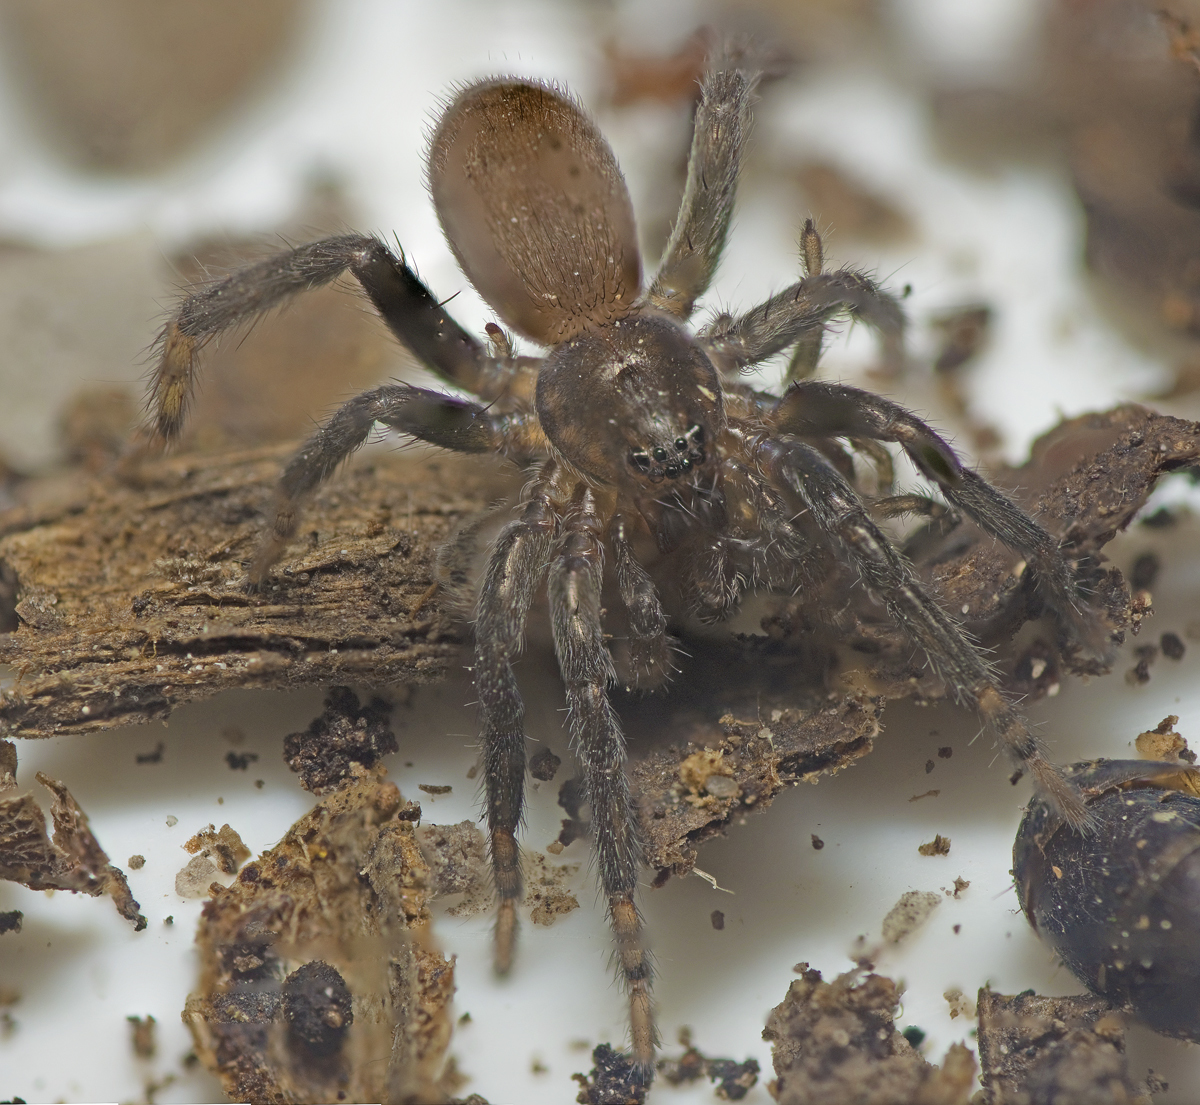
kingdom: Animalia
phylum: Arthropoda
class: Arachnida
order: Araneae
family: Miturgidae
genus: Nuliodon
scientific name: Nuliodon fishburni
